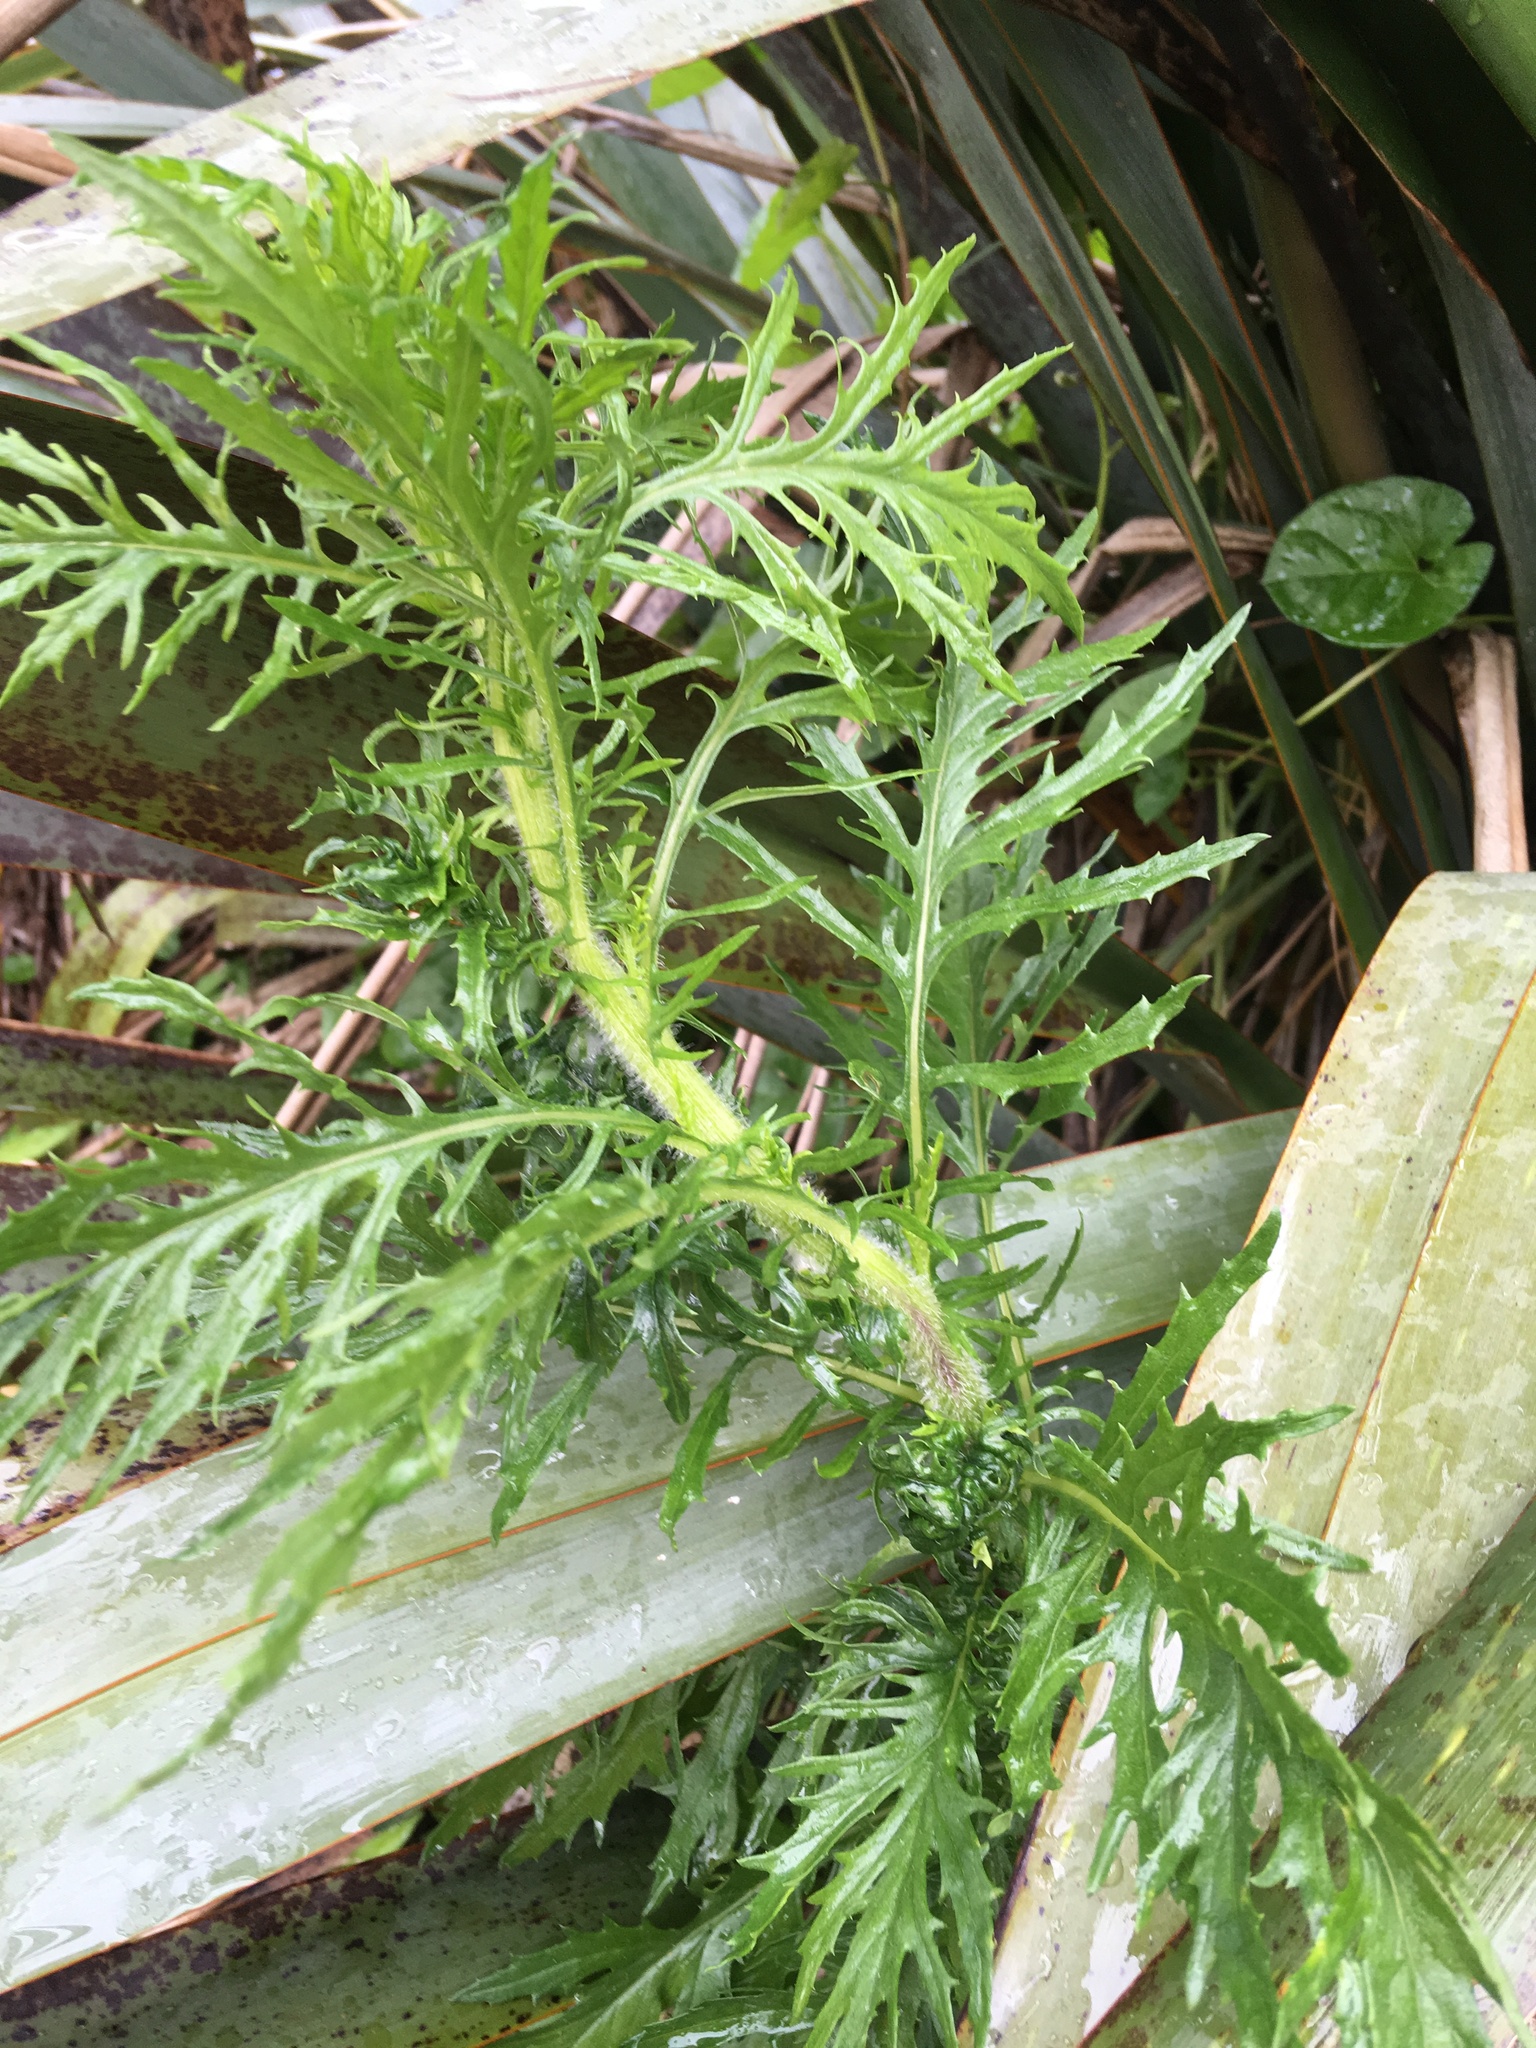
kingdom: Plantae
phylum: Tracheophyta
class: Magnoliopsida
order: Asterales
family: Asteraceae
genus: Senecio
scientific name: Senecio esleri
